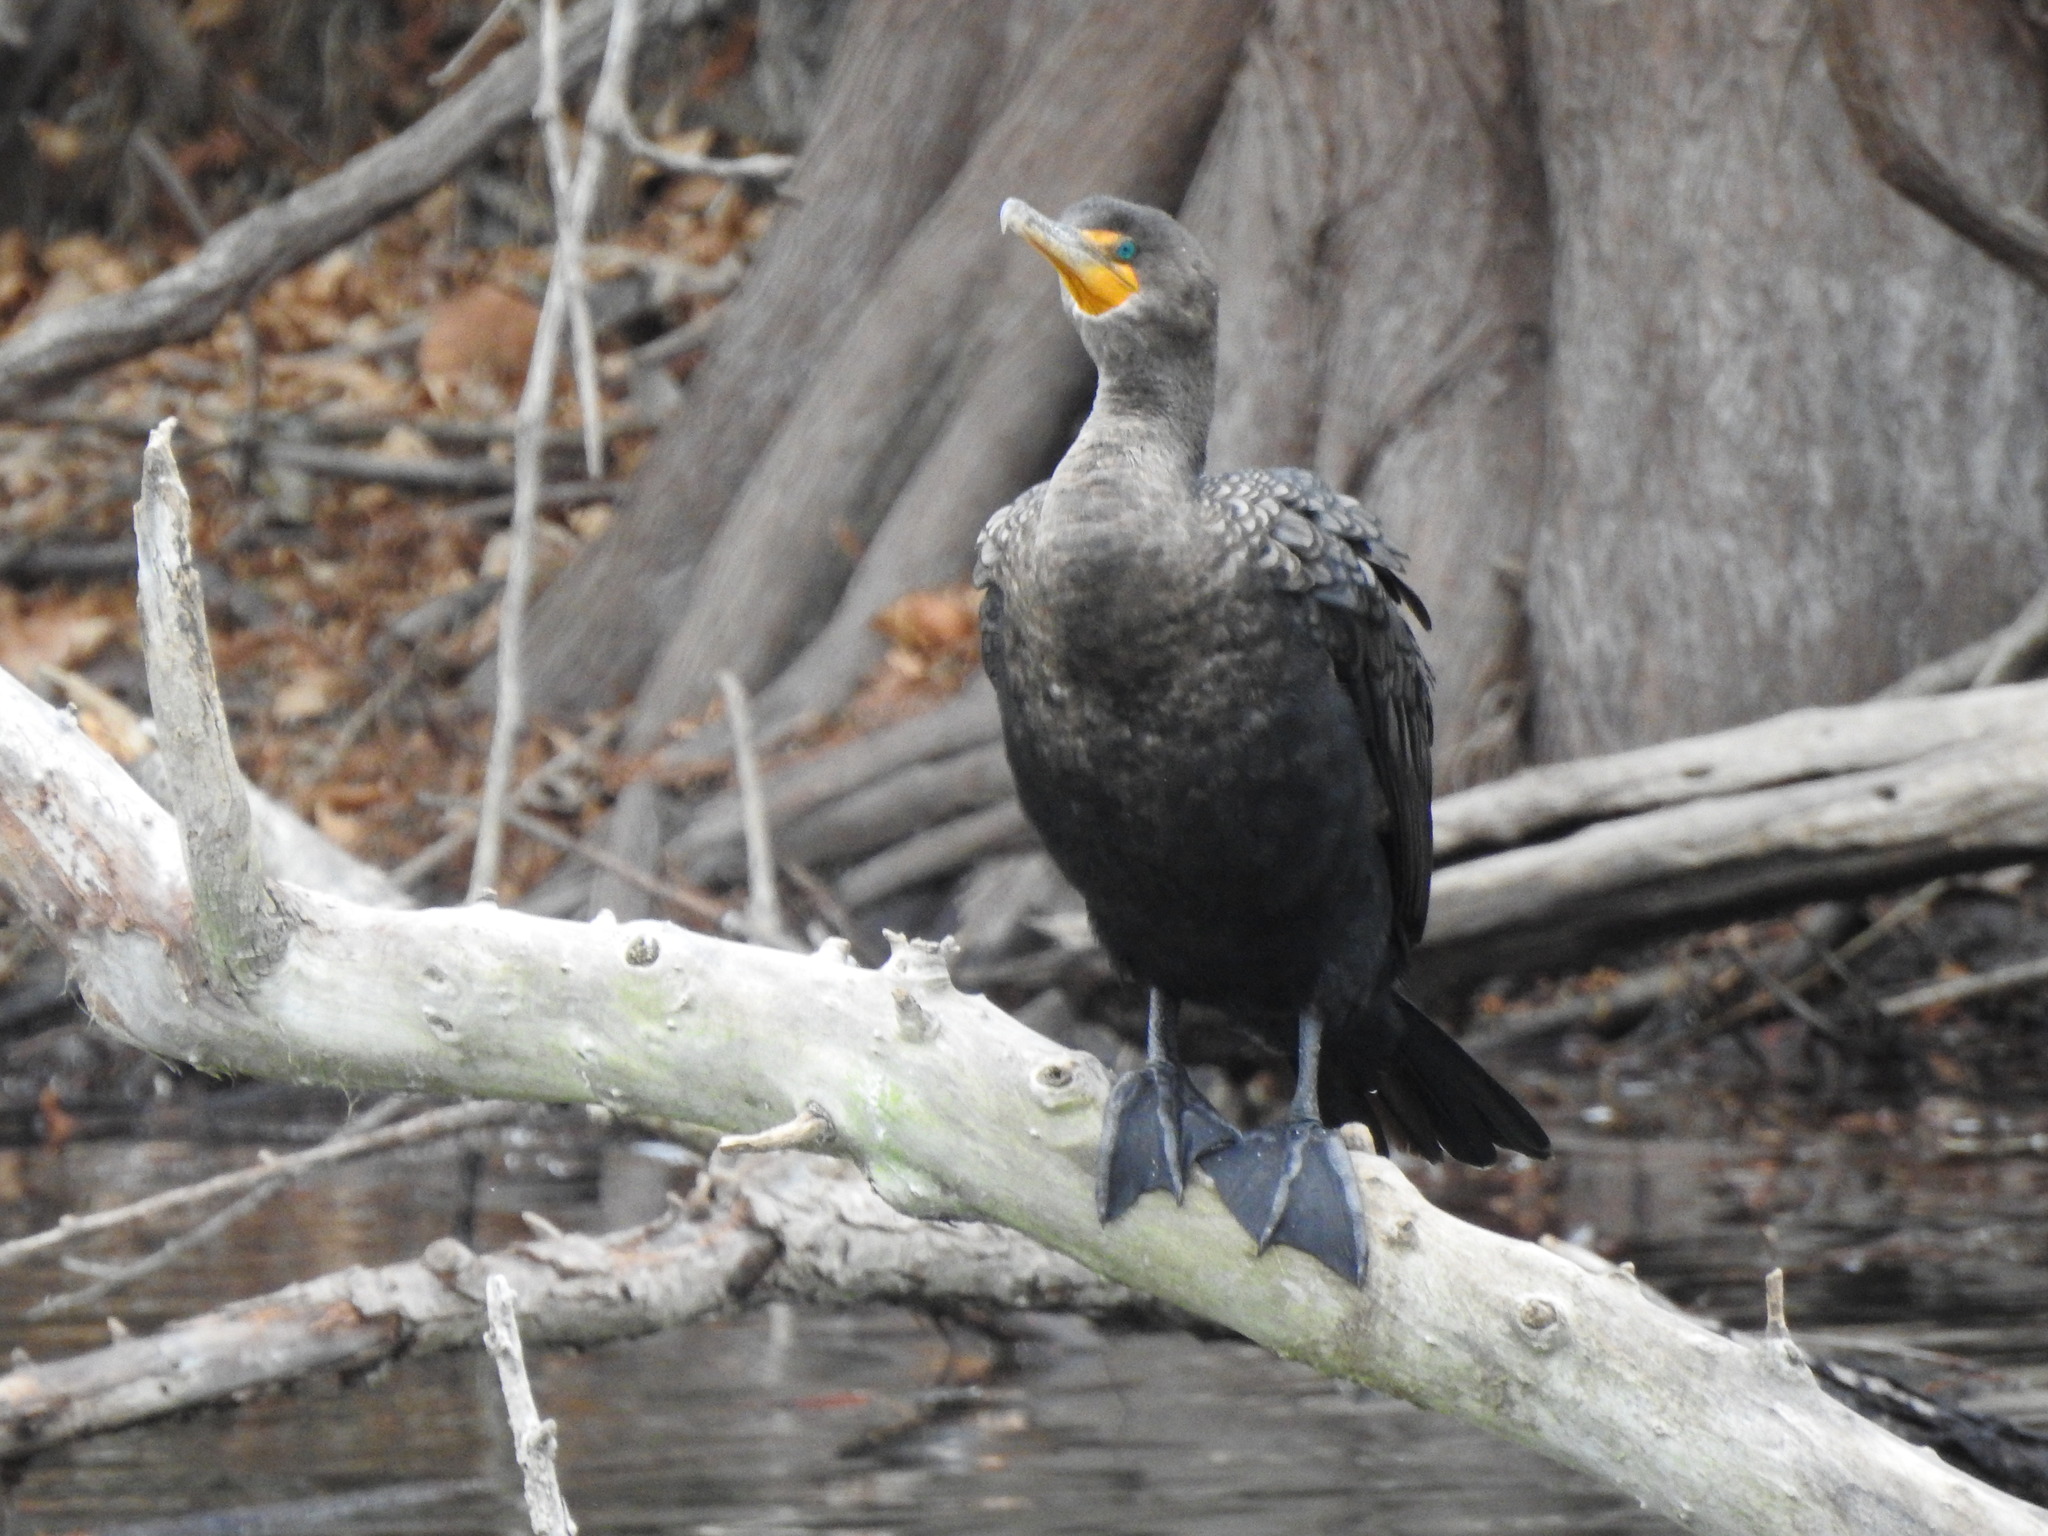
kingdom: Animalia
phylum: Chordata
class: Aves
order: Suliformes
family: Phalacrocoracidae
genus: Phalacrocorax
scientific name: Phalacrocorax auritus
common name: Double-crested cormorant
